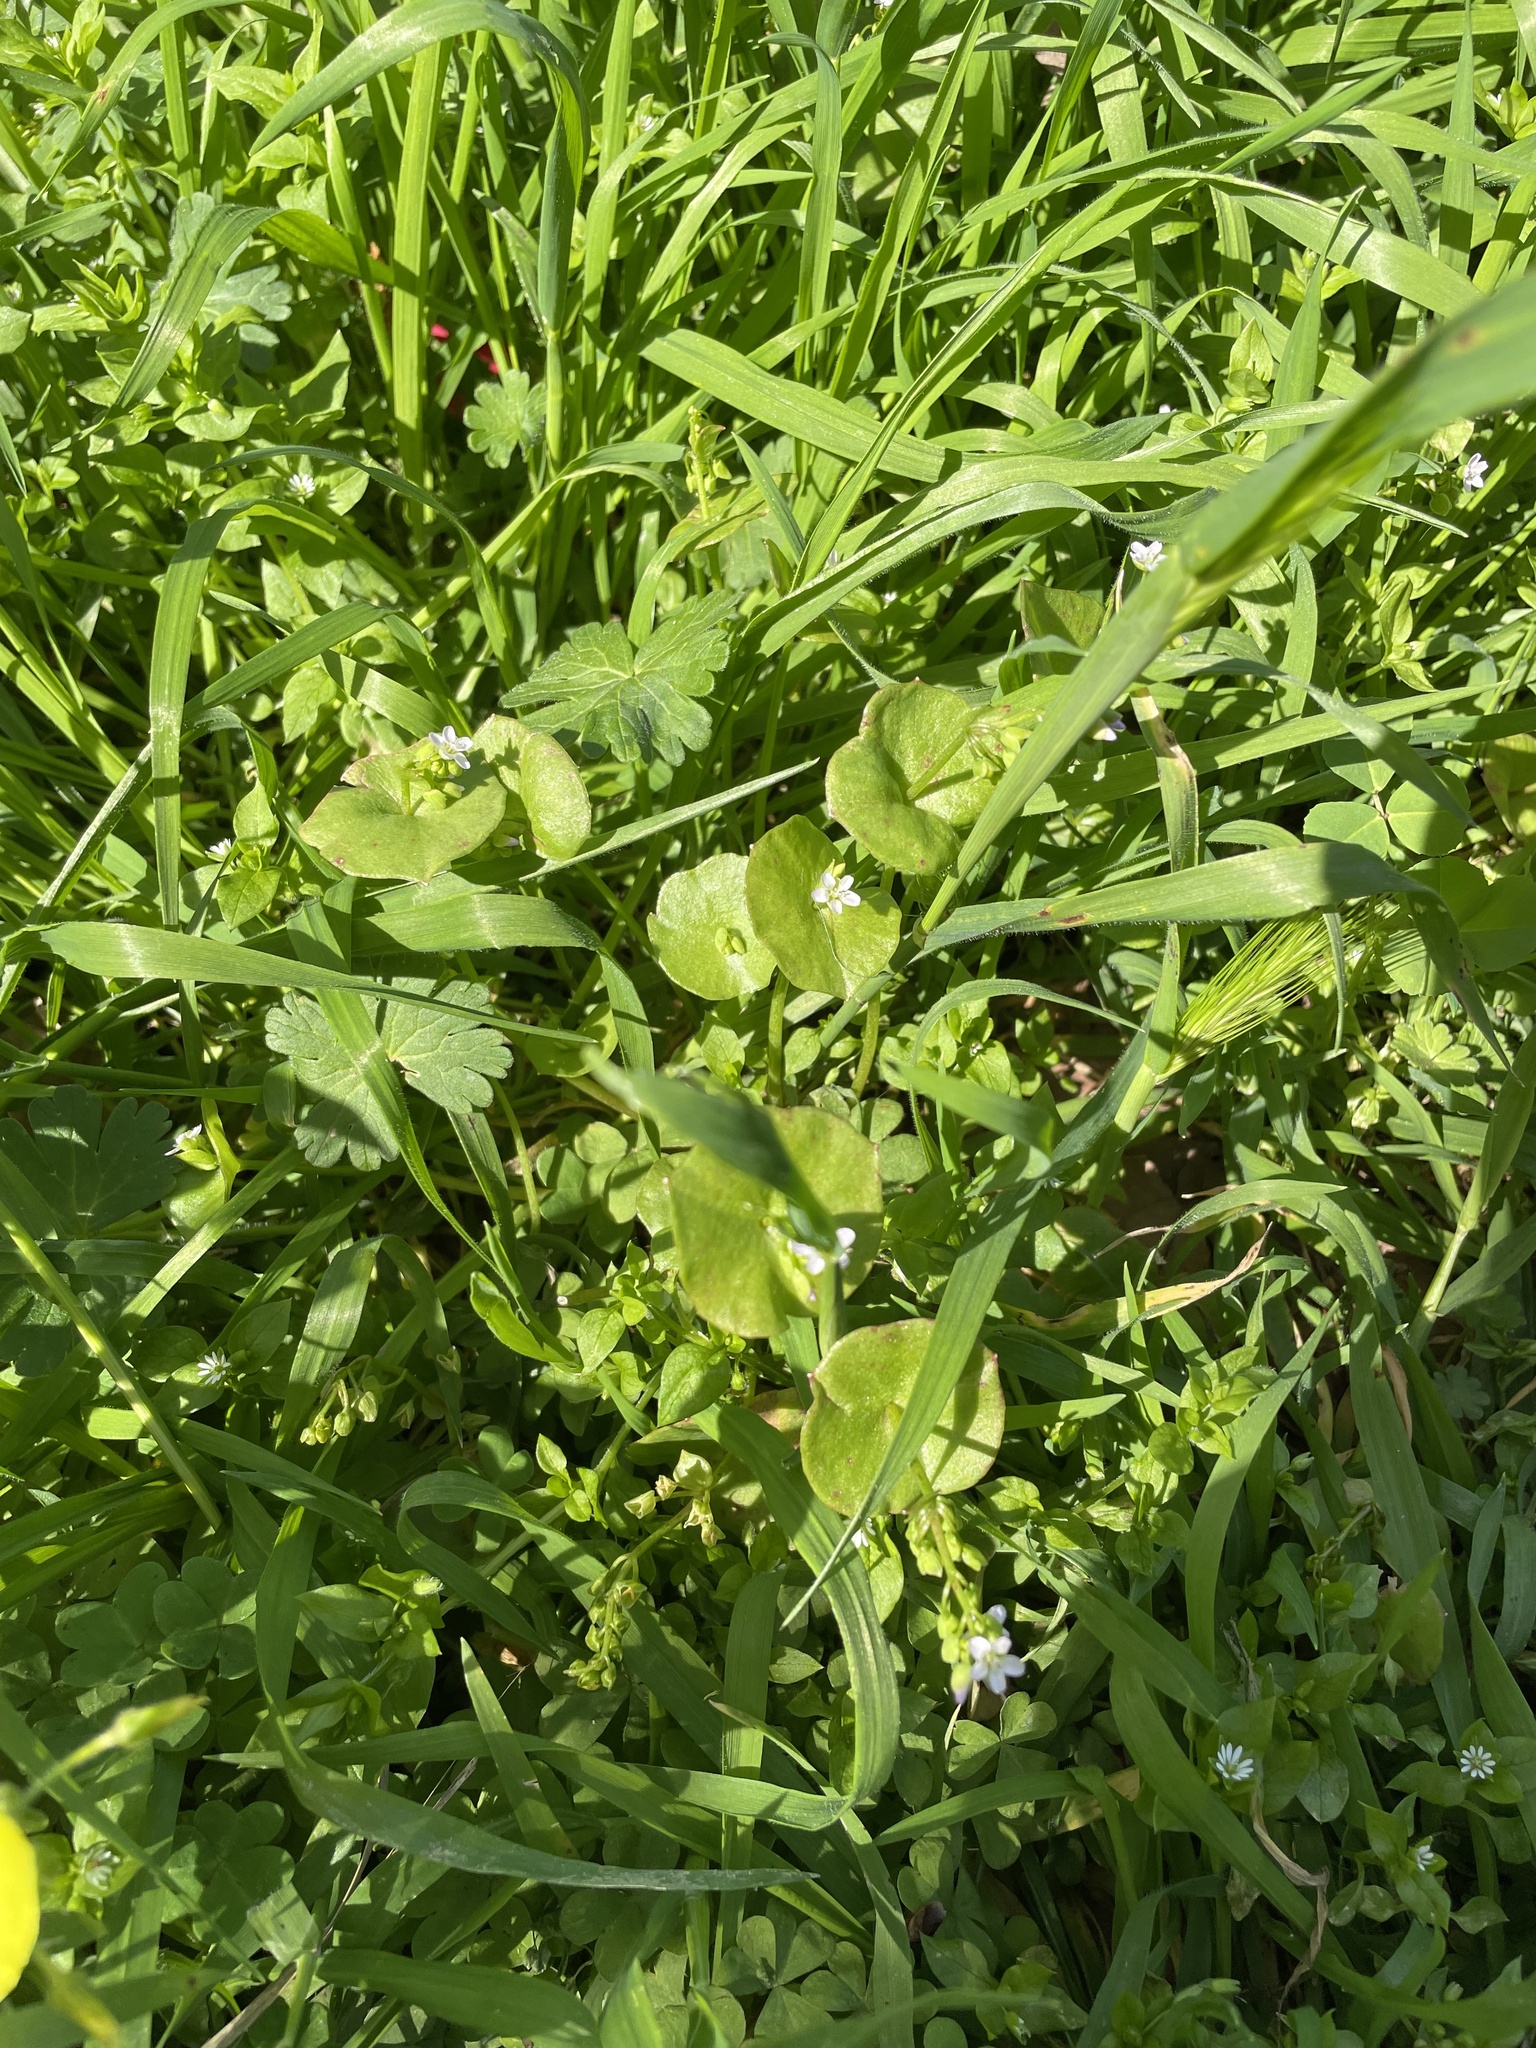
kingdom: Plantae
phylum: Tracheophyta
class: Magnoliopsida
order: Caryophyllales
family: Montiaceae
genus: Claytonia
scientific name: Claytonia perfoliata
